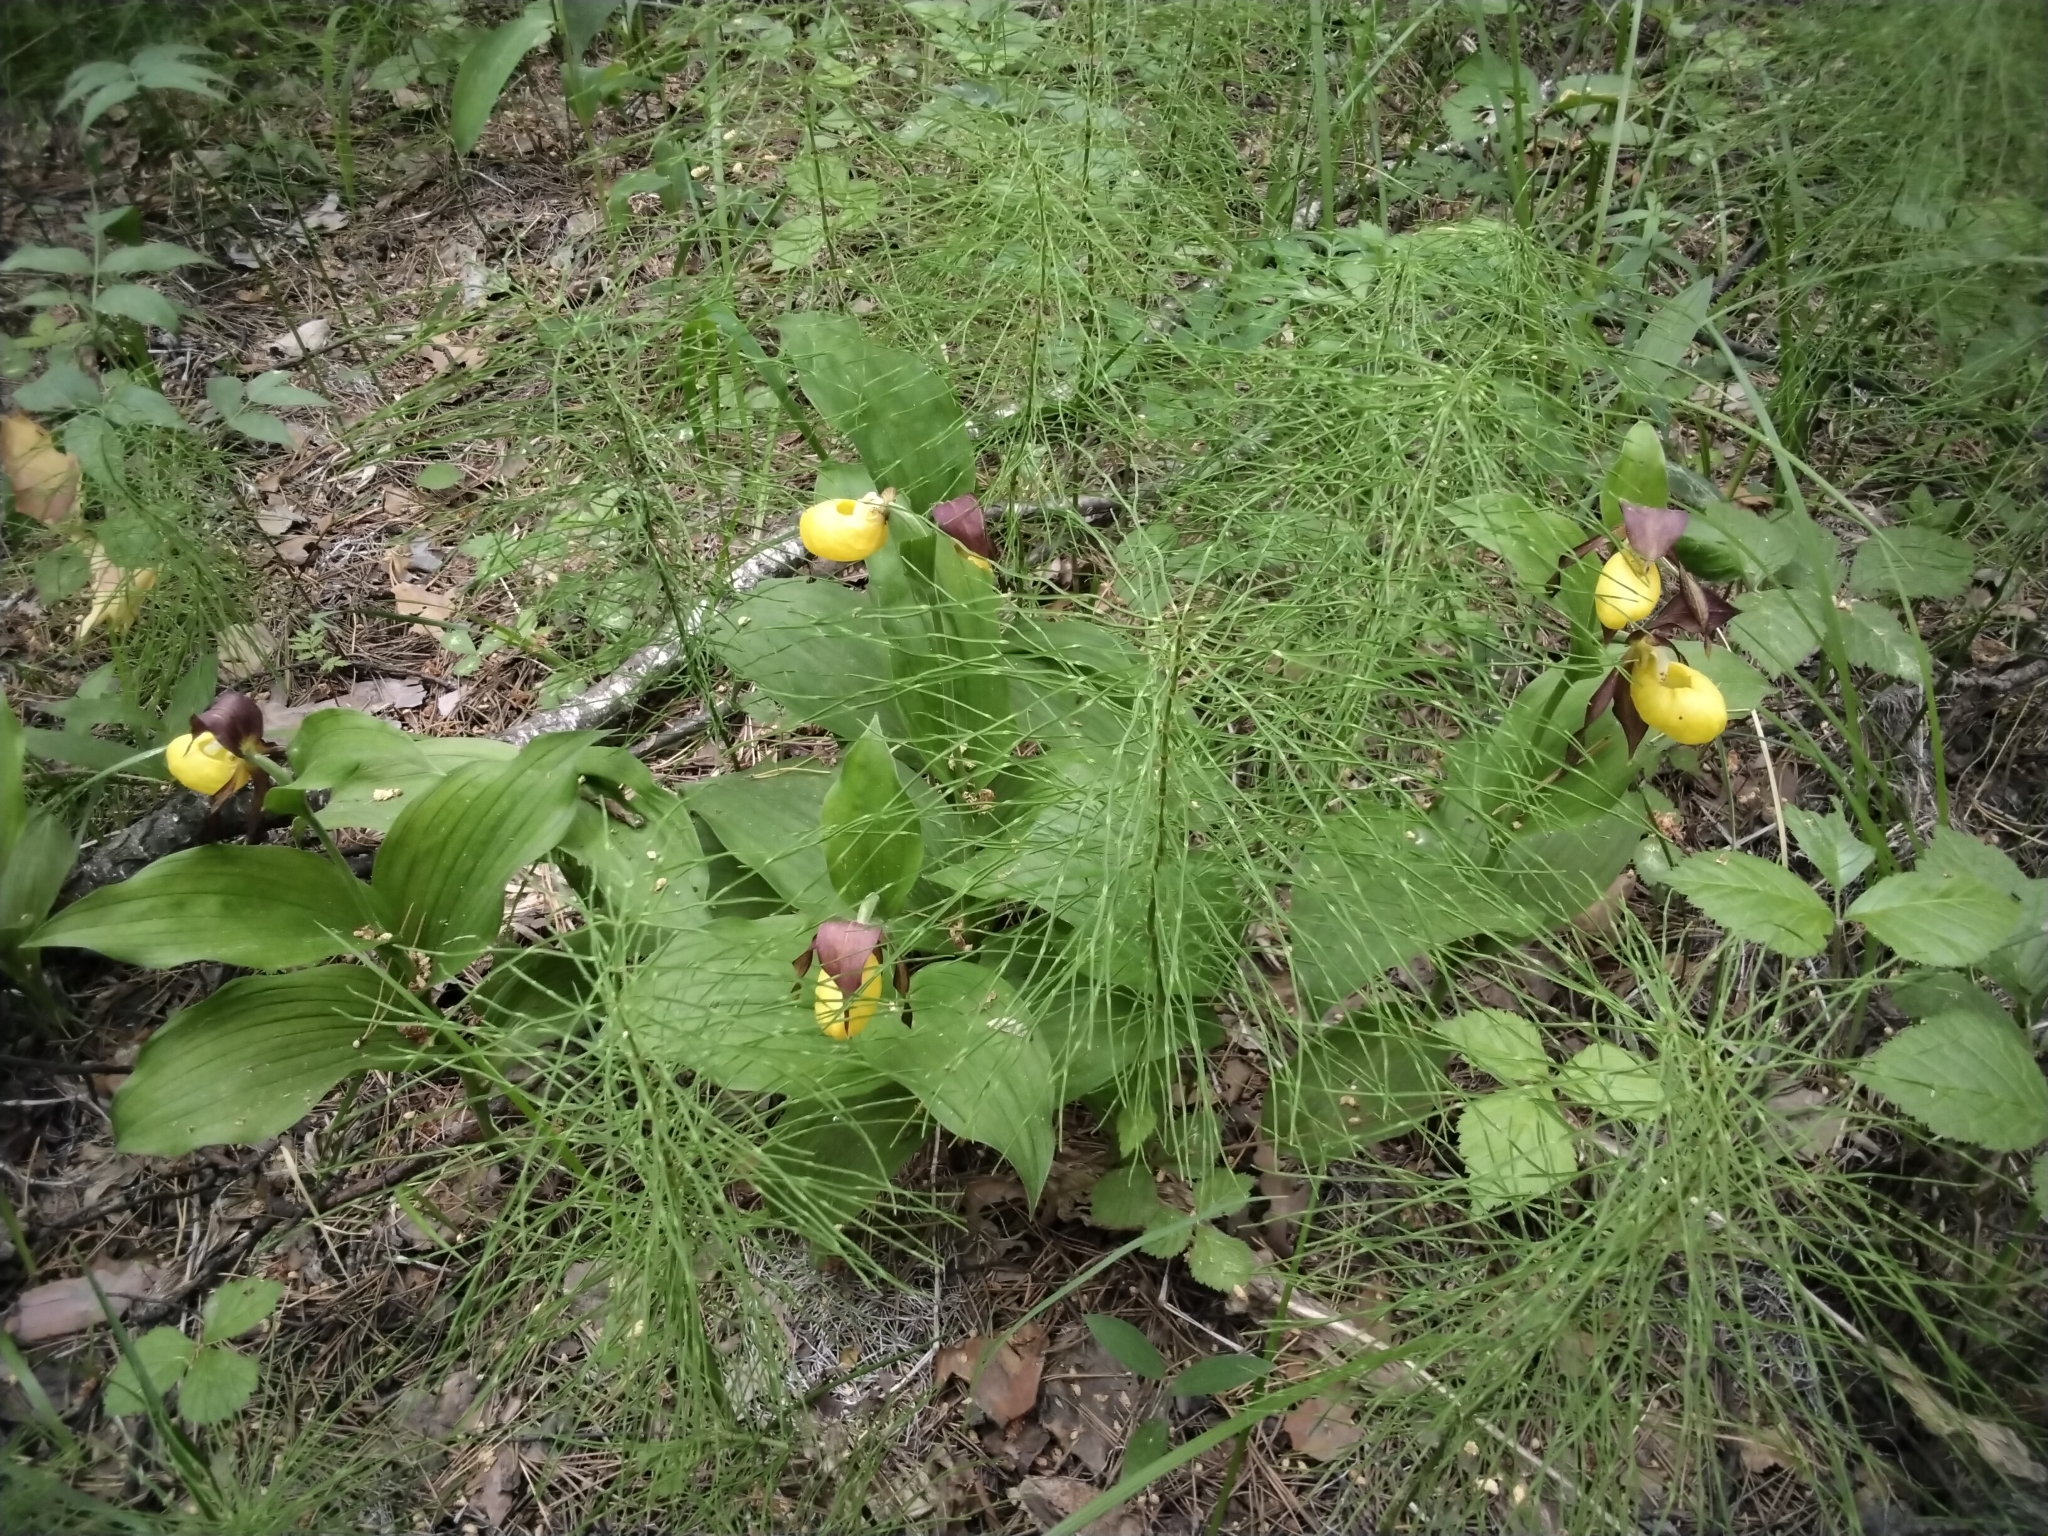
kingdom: Plantae
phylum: Tracheophyta
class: Liliopsida
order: Asparagales
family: Orchidaceae
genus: Cypripedium
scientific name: Cypripedium calceolus
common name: Lady's-slipper
